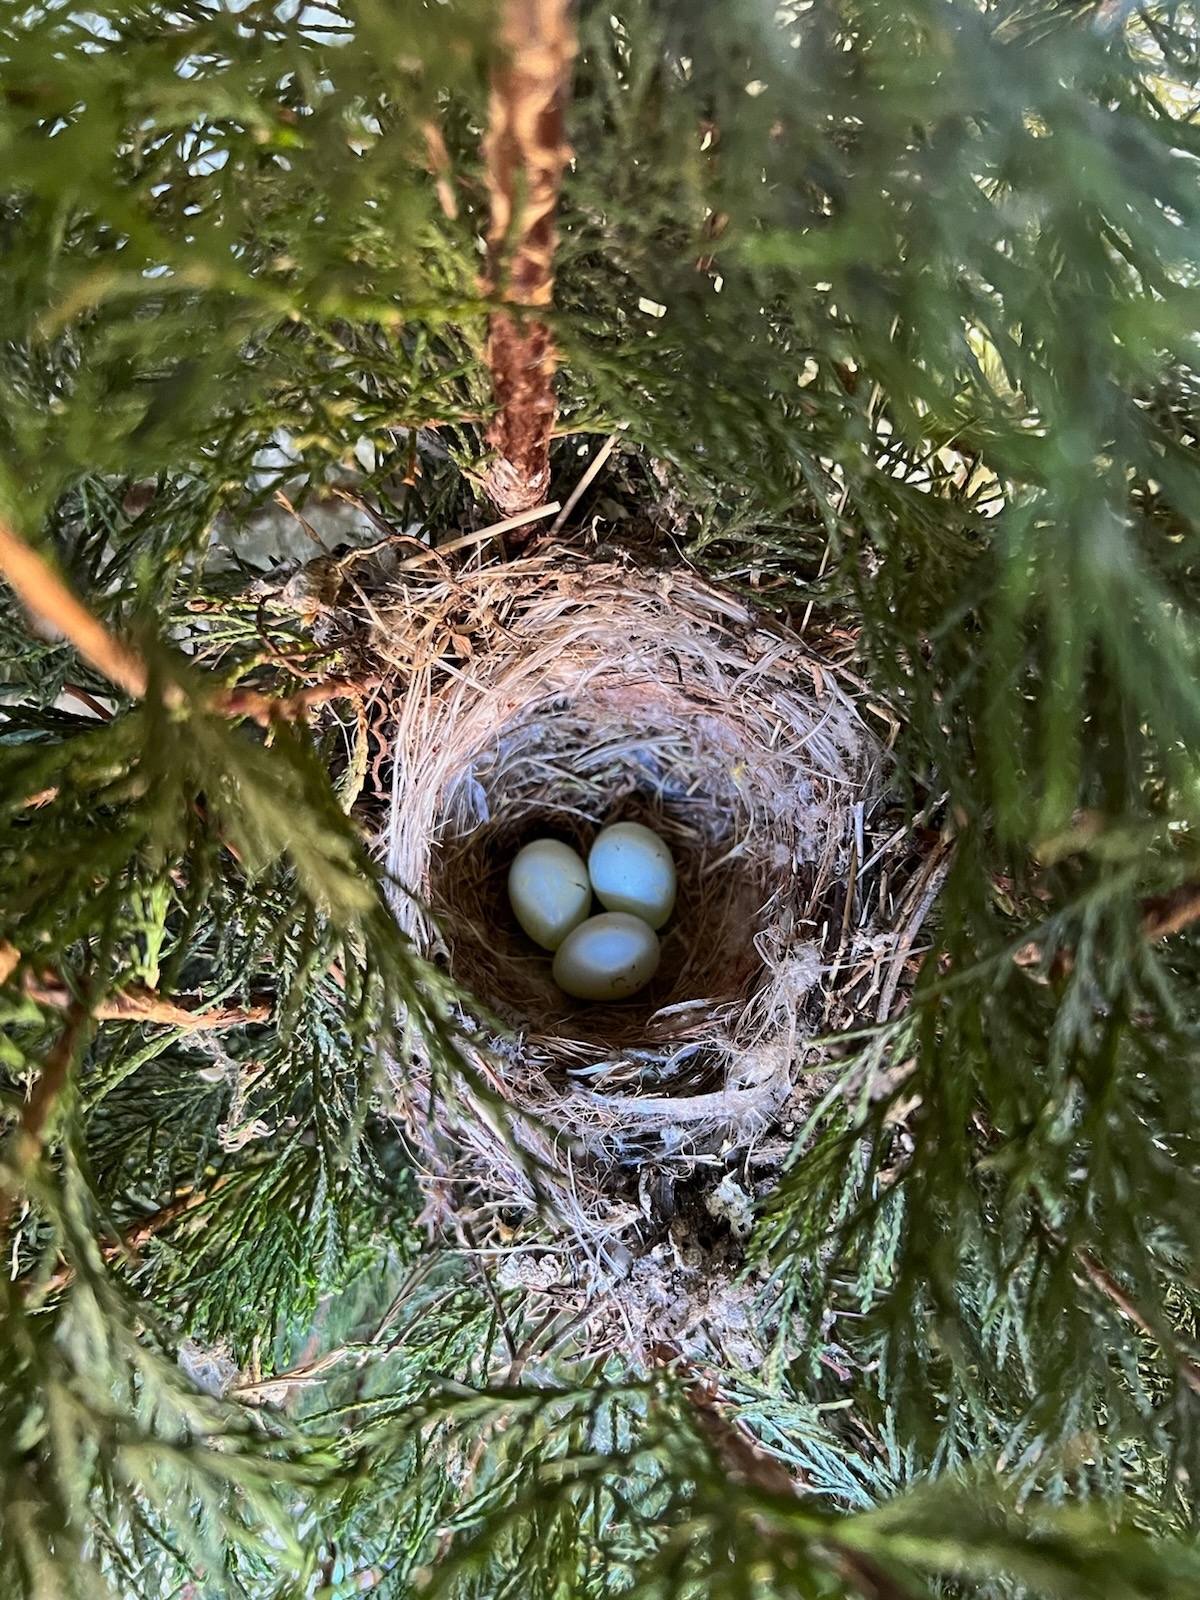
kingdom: Animalia
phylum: Chordata
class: Aves
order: Passeriformes
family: Passerellidae
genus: Junco
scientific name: Junco hyemalis
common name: Dark-eyed junco
